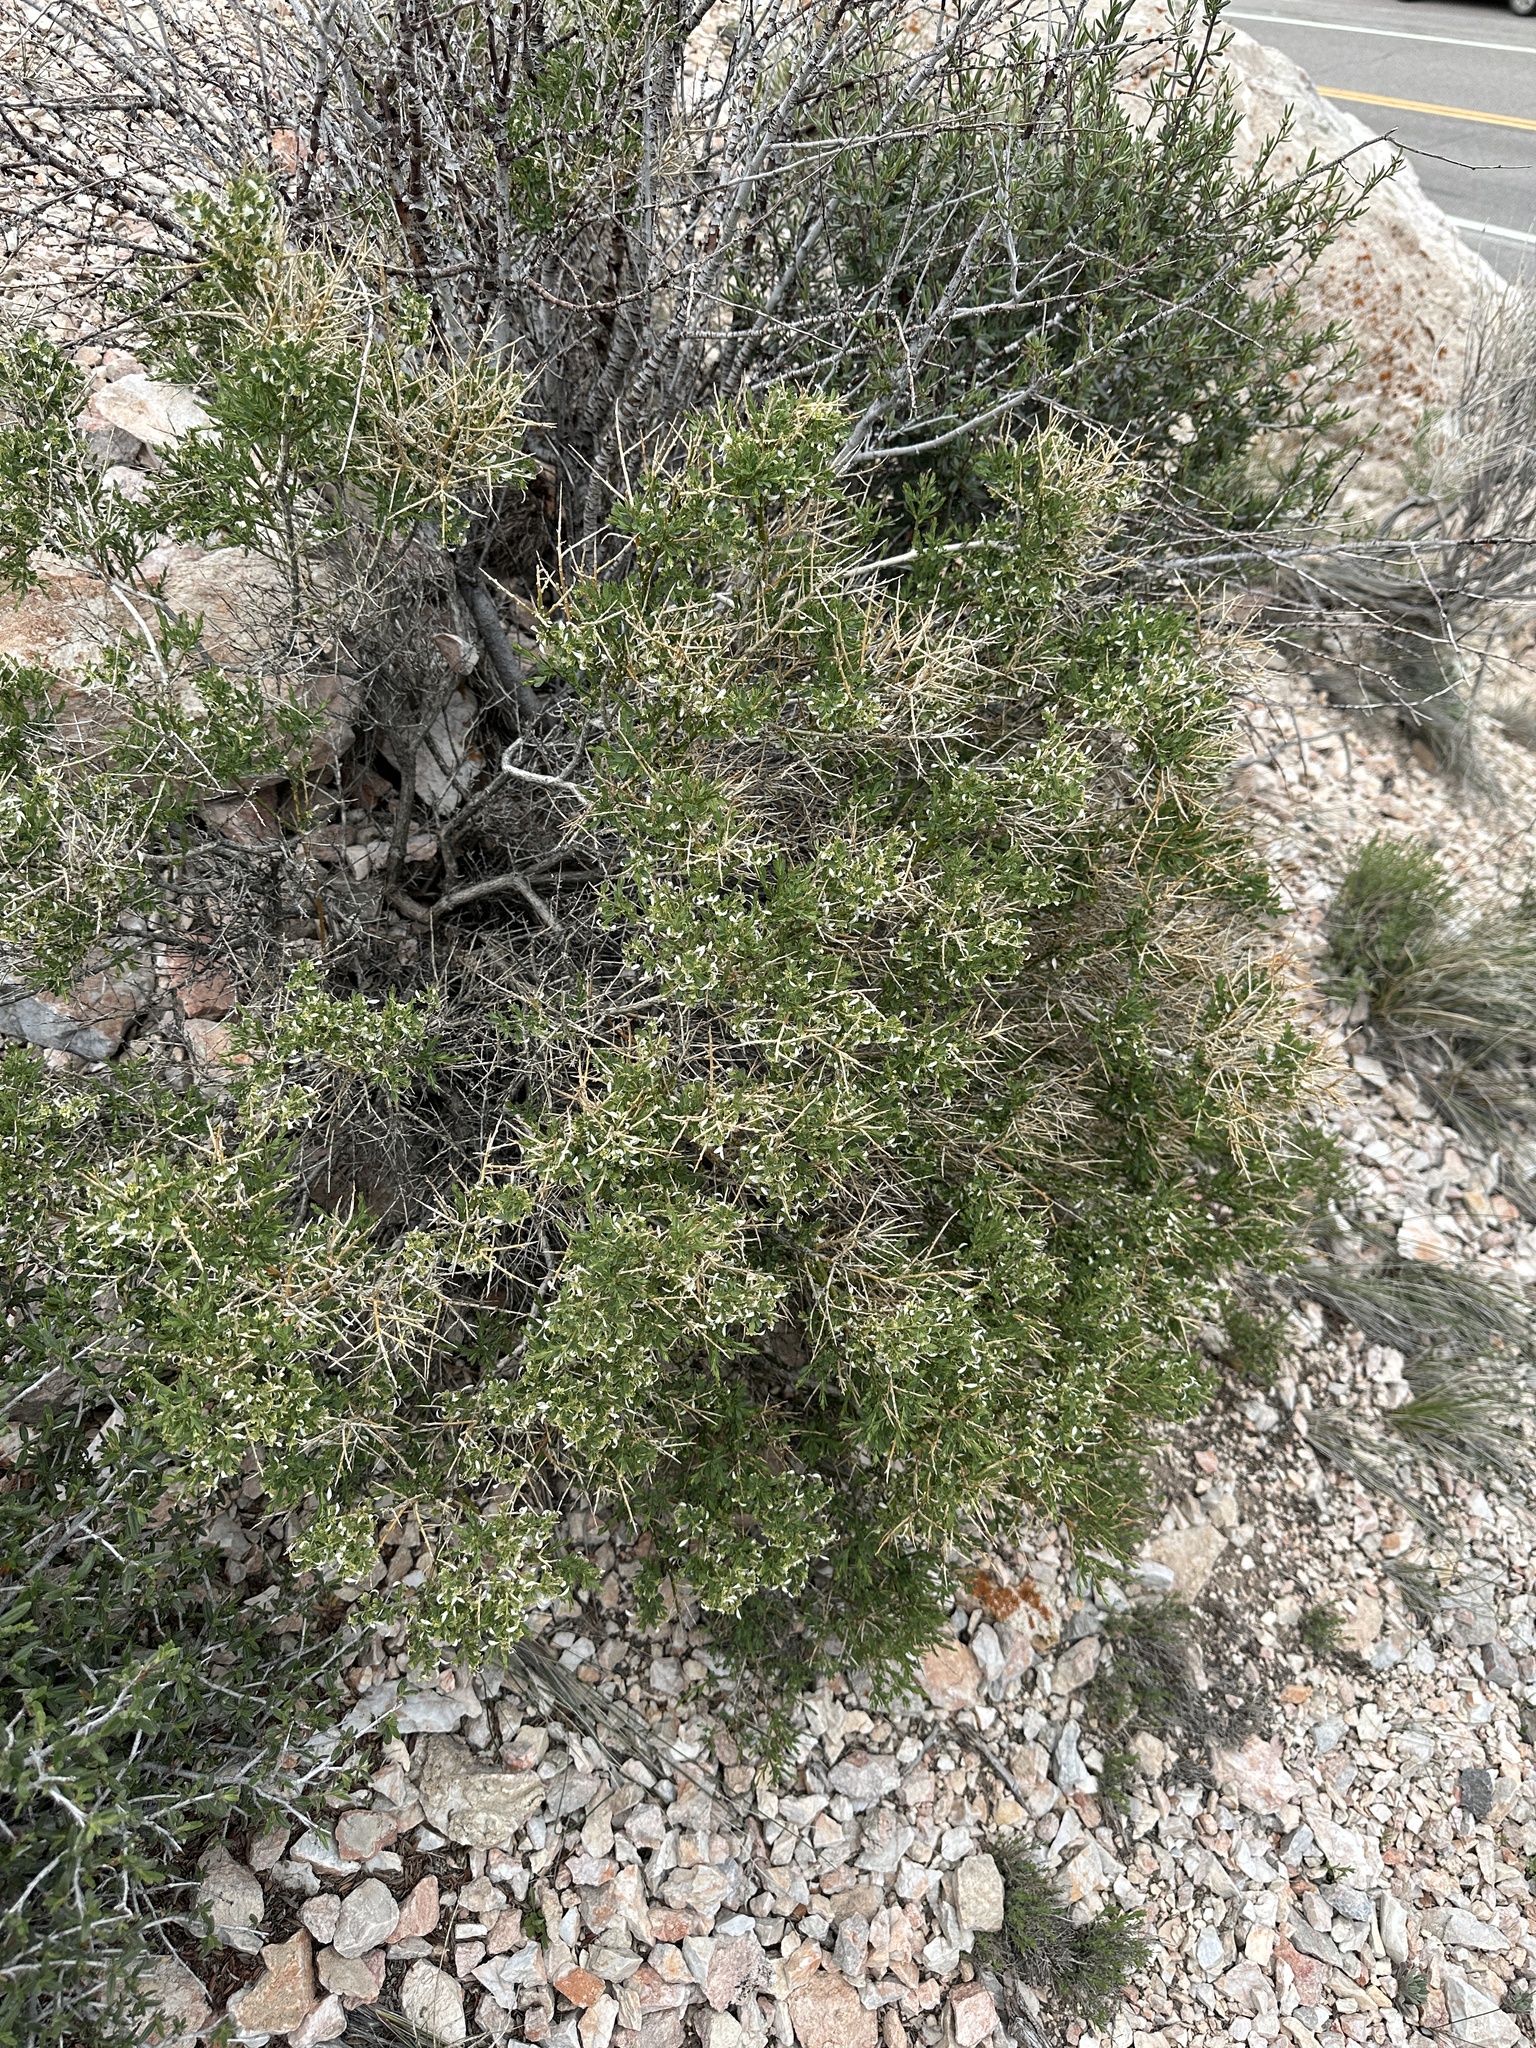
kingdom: Plantae
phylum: Tracheophyta
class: Magnoliopsida
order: Crossosomatales
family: Crossosomataceae
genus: Glossopetalon
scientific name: Glossopetalon spinescens
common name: Spring greasebush
